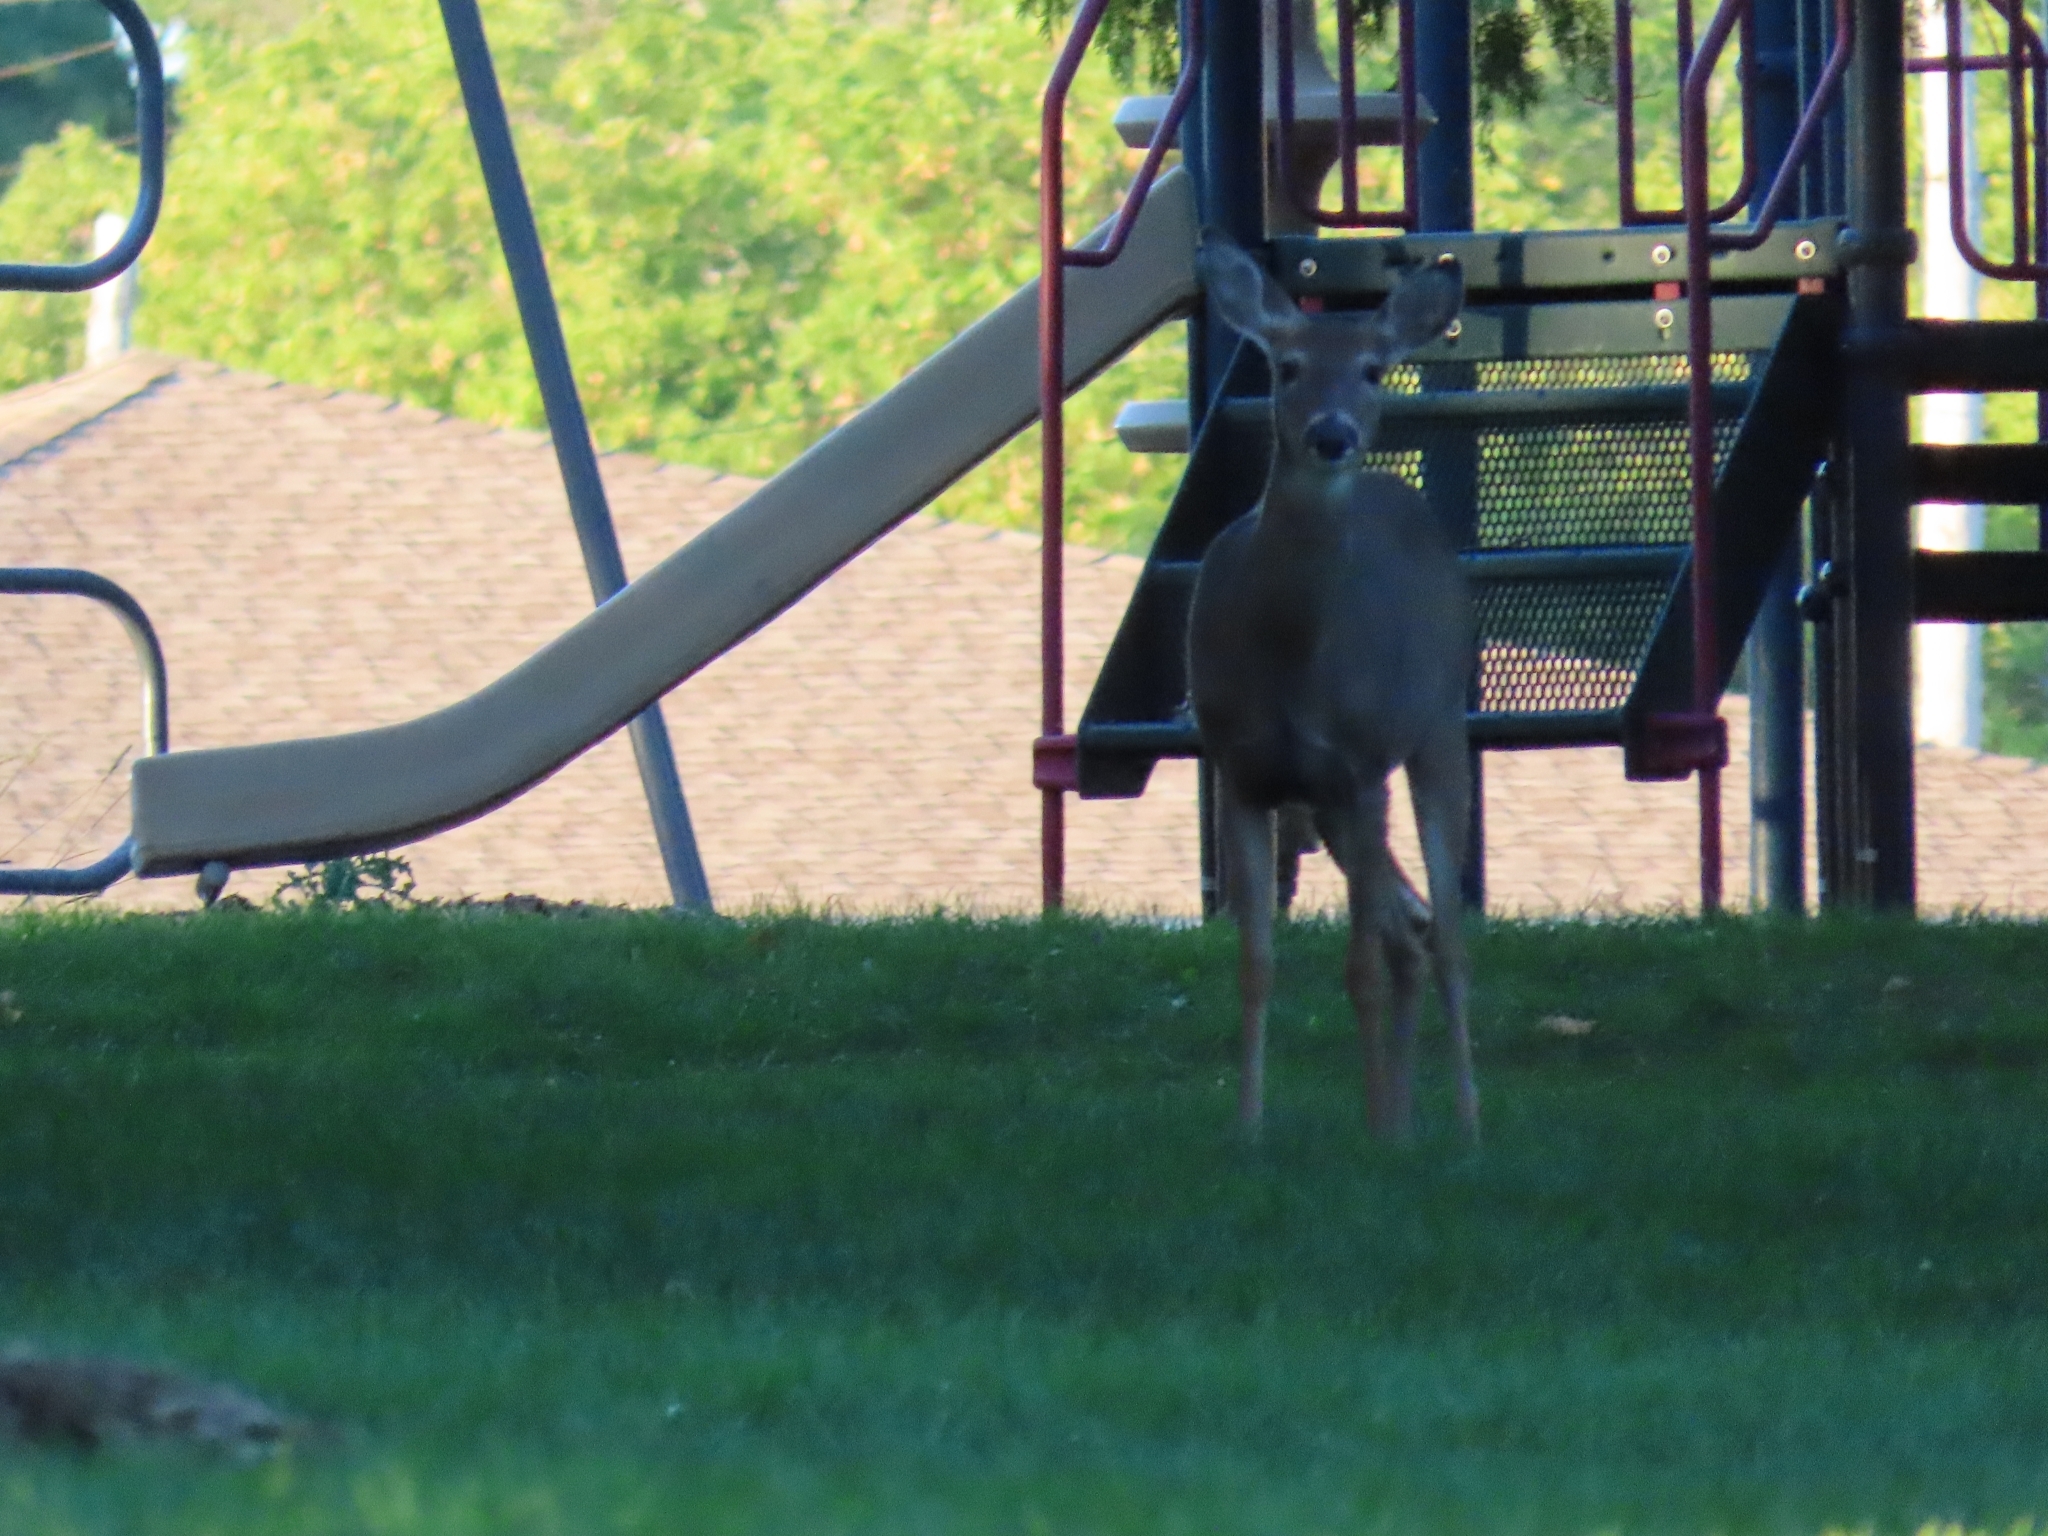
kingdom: Animalia
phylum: Chordata
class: Mammalia
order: Artiodactyla
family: Cervidae
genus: Odocoileus
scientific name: Odocoileus virginianus
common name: White-tailed deer
